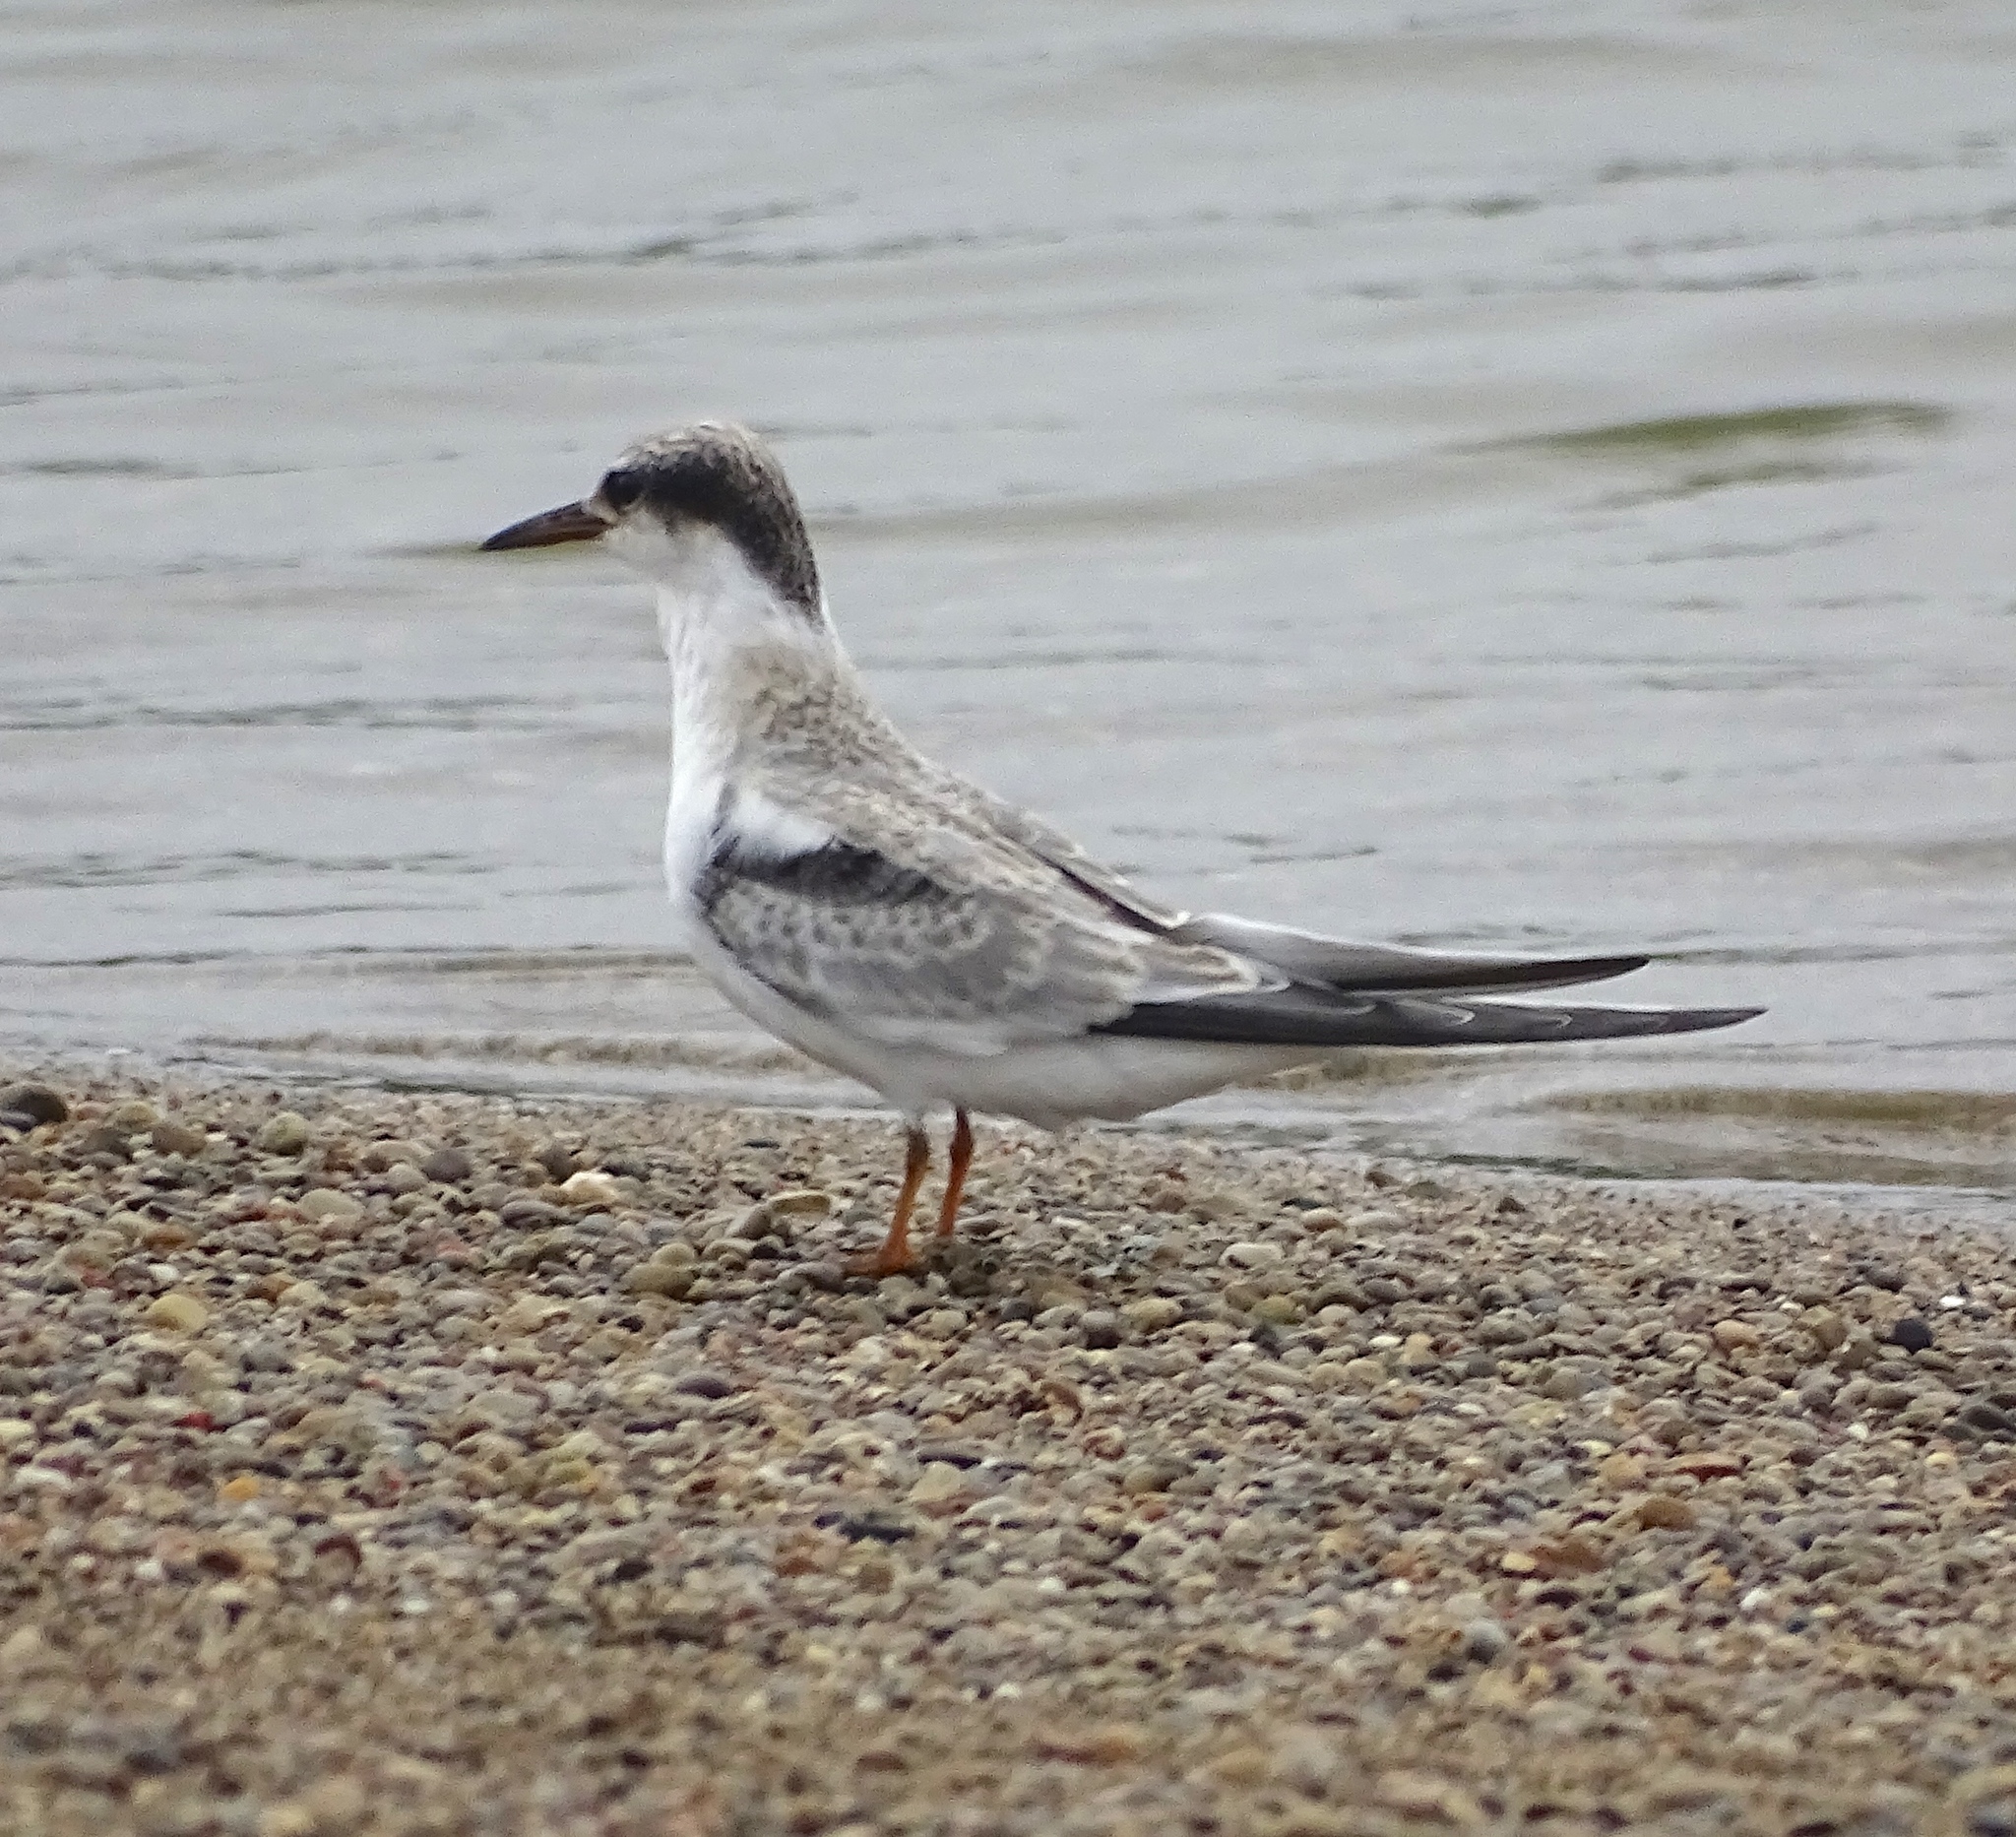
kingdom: Animalia
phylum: Chordata
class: Aves
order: Charadriiformes
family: Laridae
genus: Sternula
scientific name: Sternula antillarum
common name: Least tern
